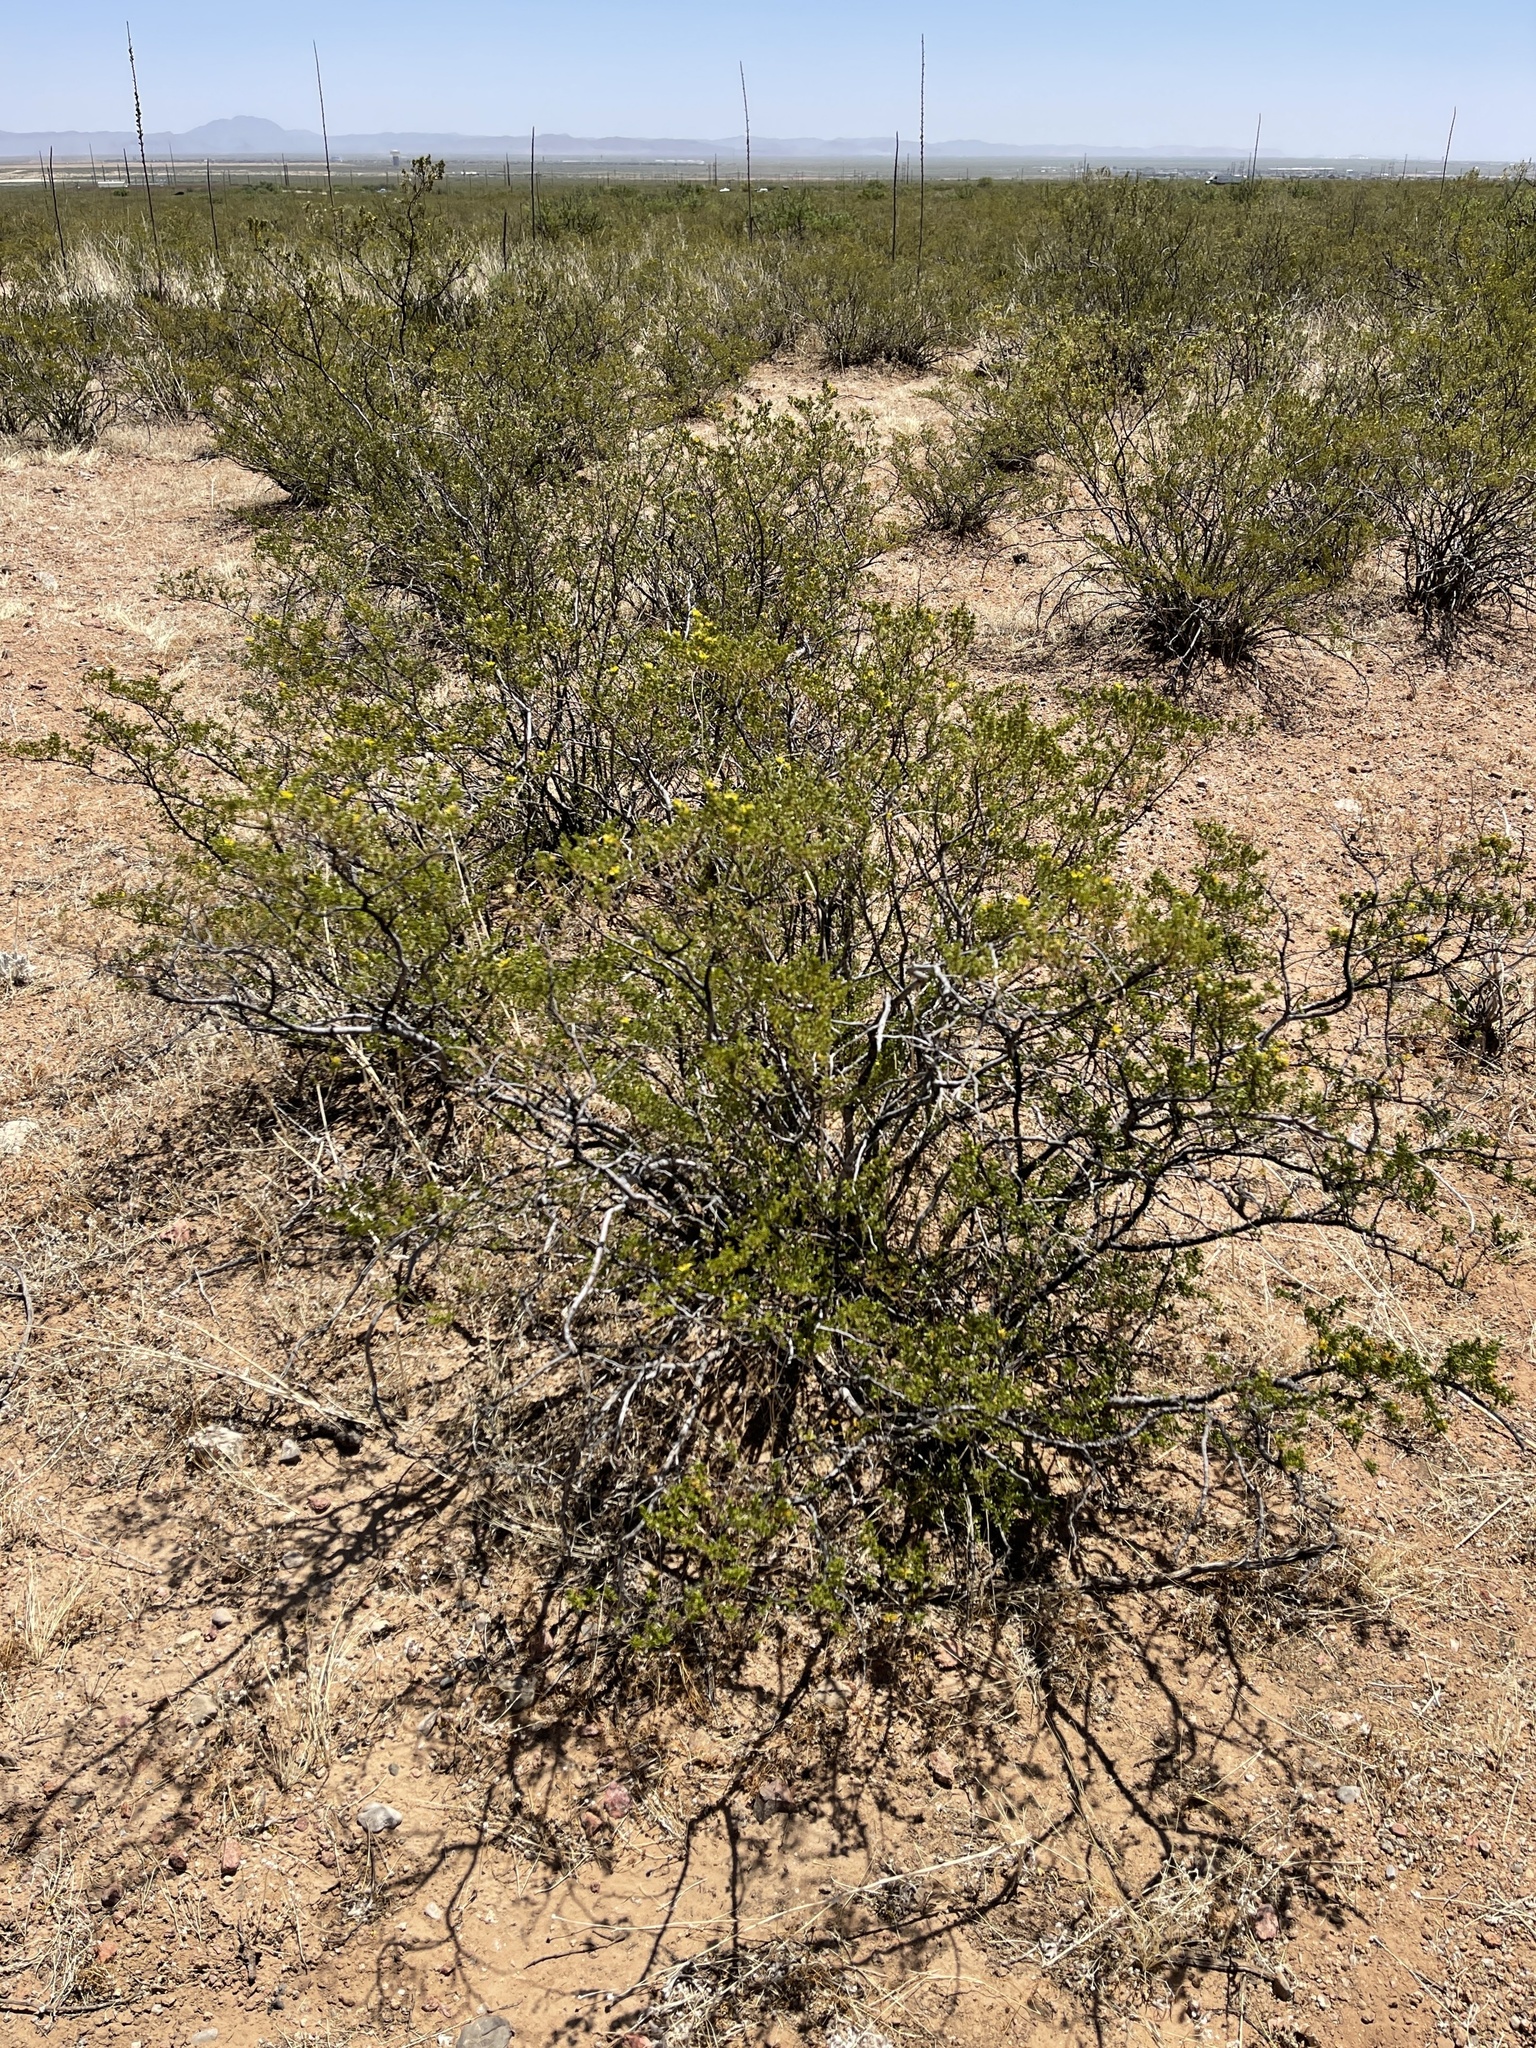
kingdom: Plantae
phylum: Tracheophyta
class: Magnoliopsida
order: Zygophyllales
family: Zygophyllaceae
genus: Larrea
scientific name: Larrea tridentata
